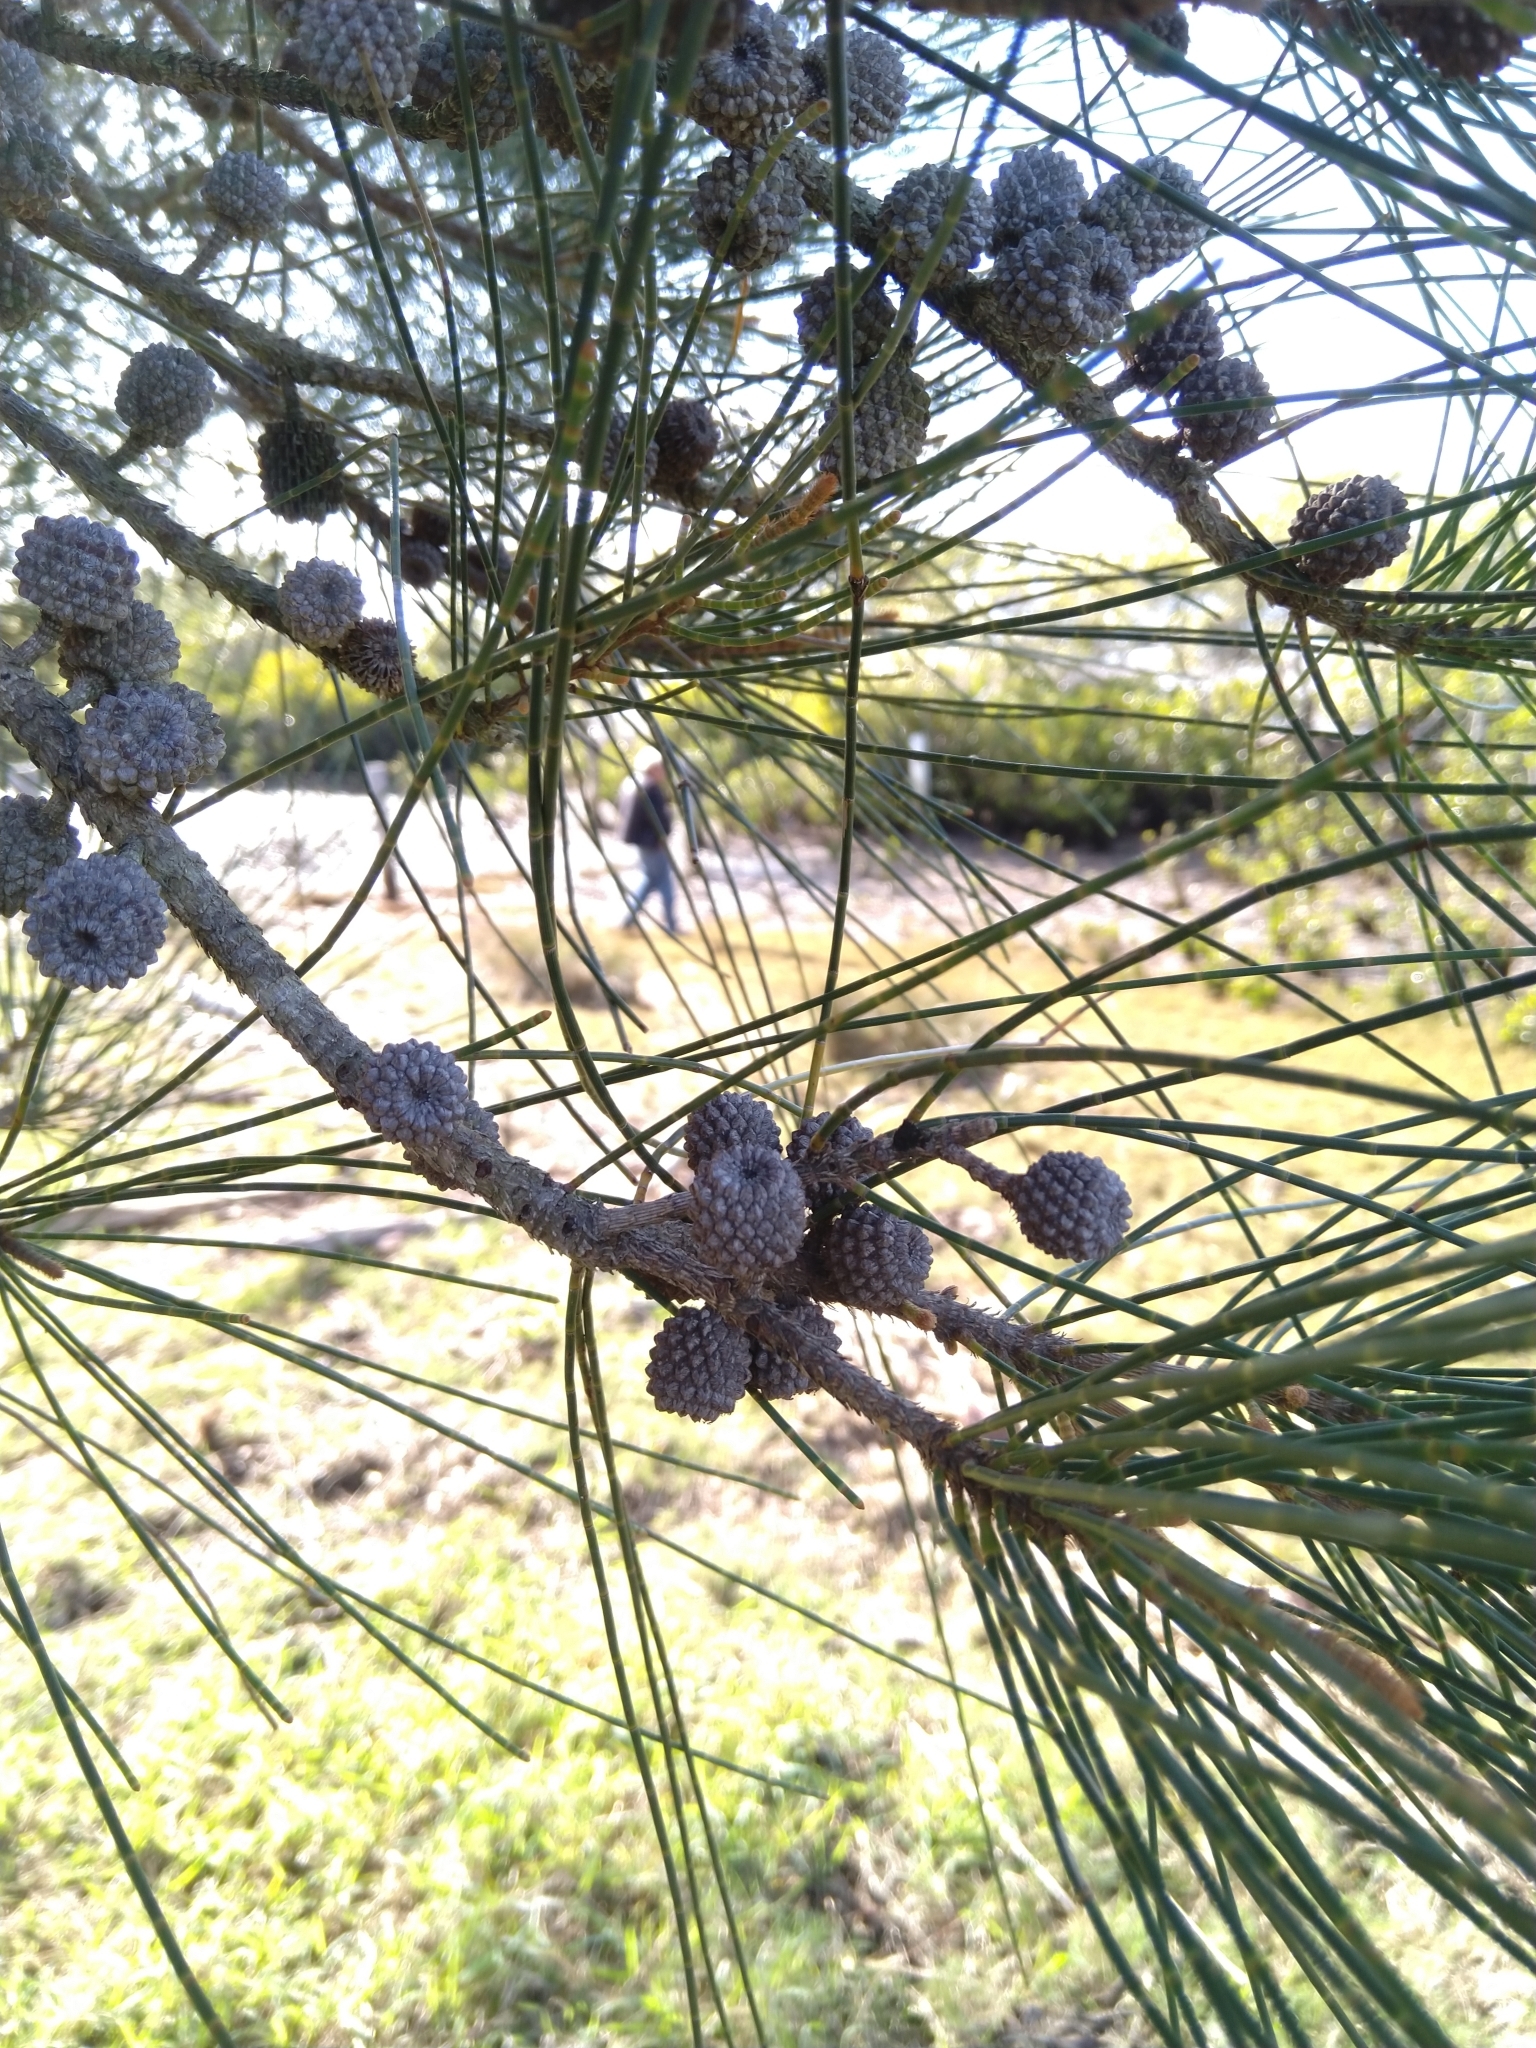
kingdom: Plantae
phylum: Tracheophyta
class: Magnoliopsida
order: Fagales
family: Casuarinaceae
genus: Casuarina
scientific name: Casuarina glauca
